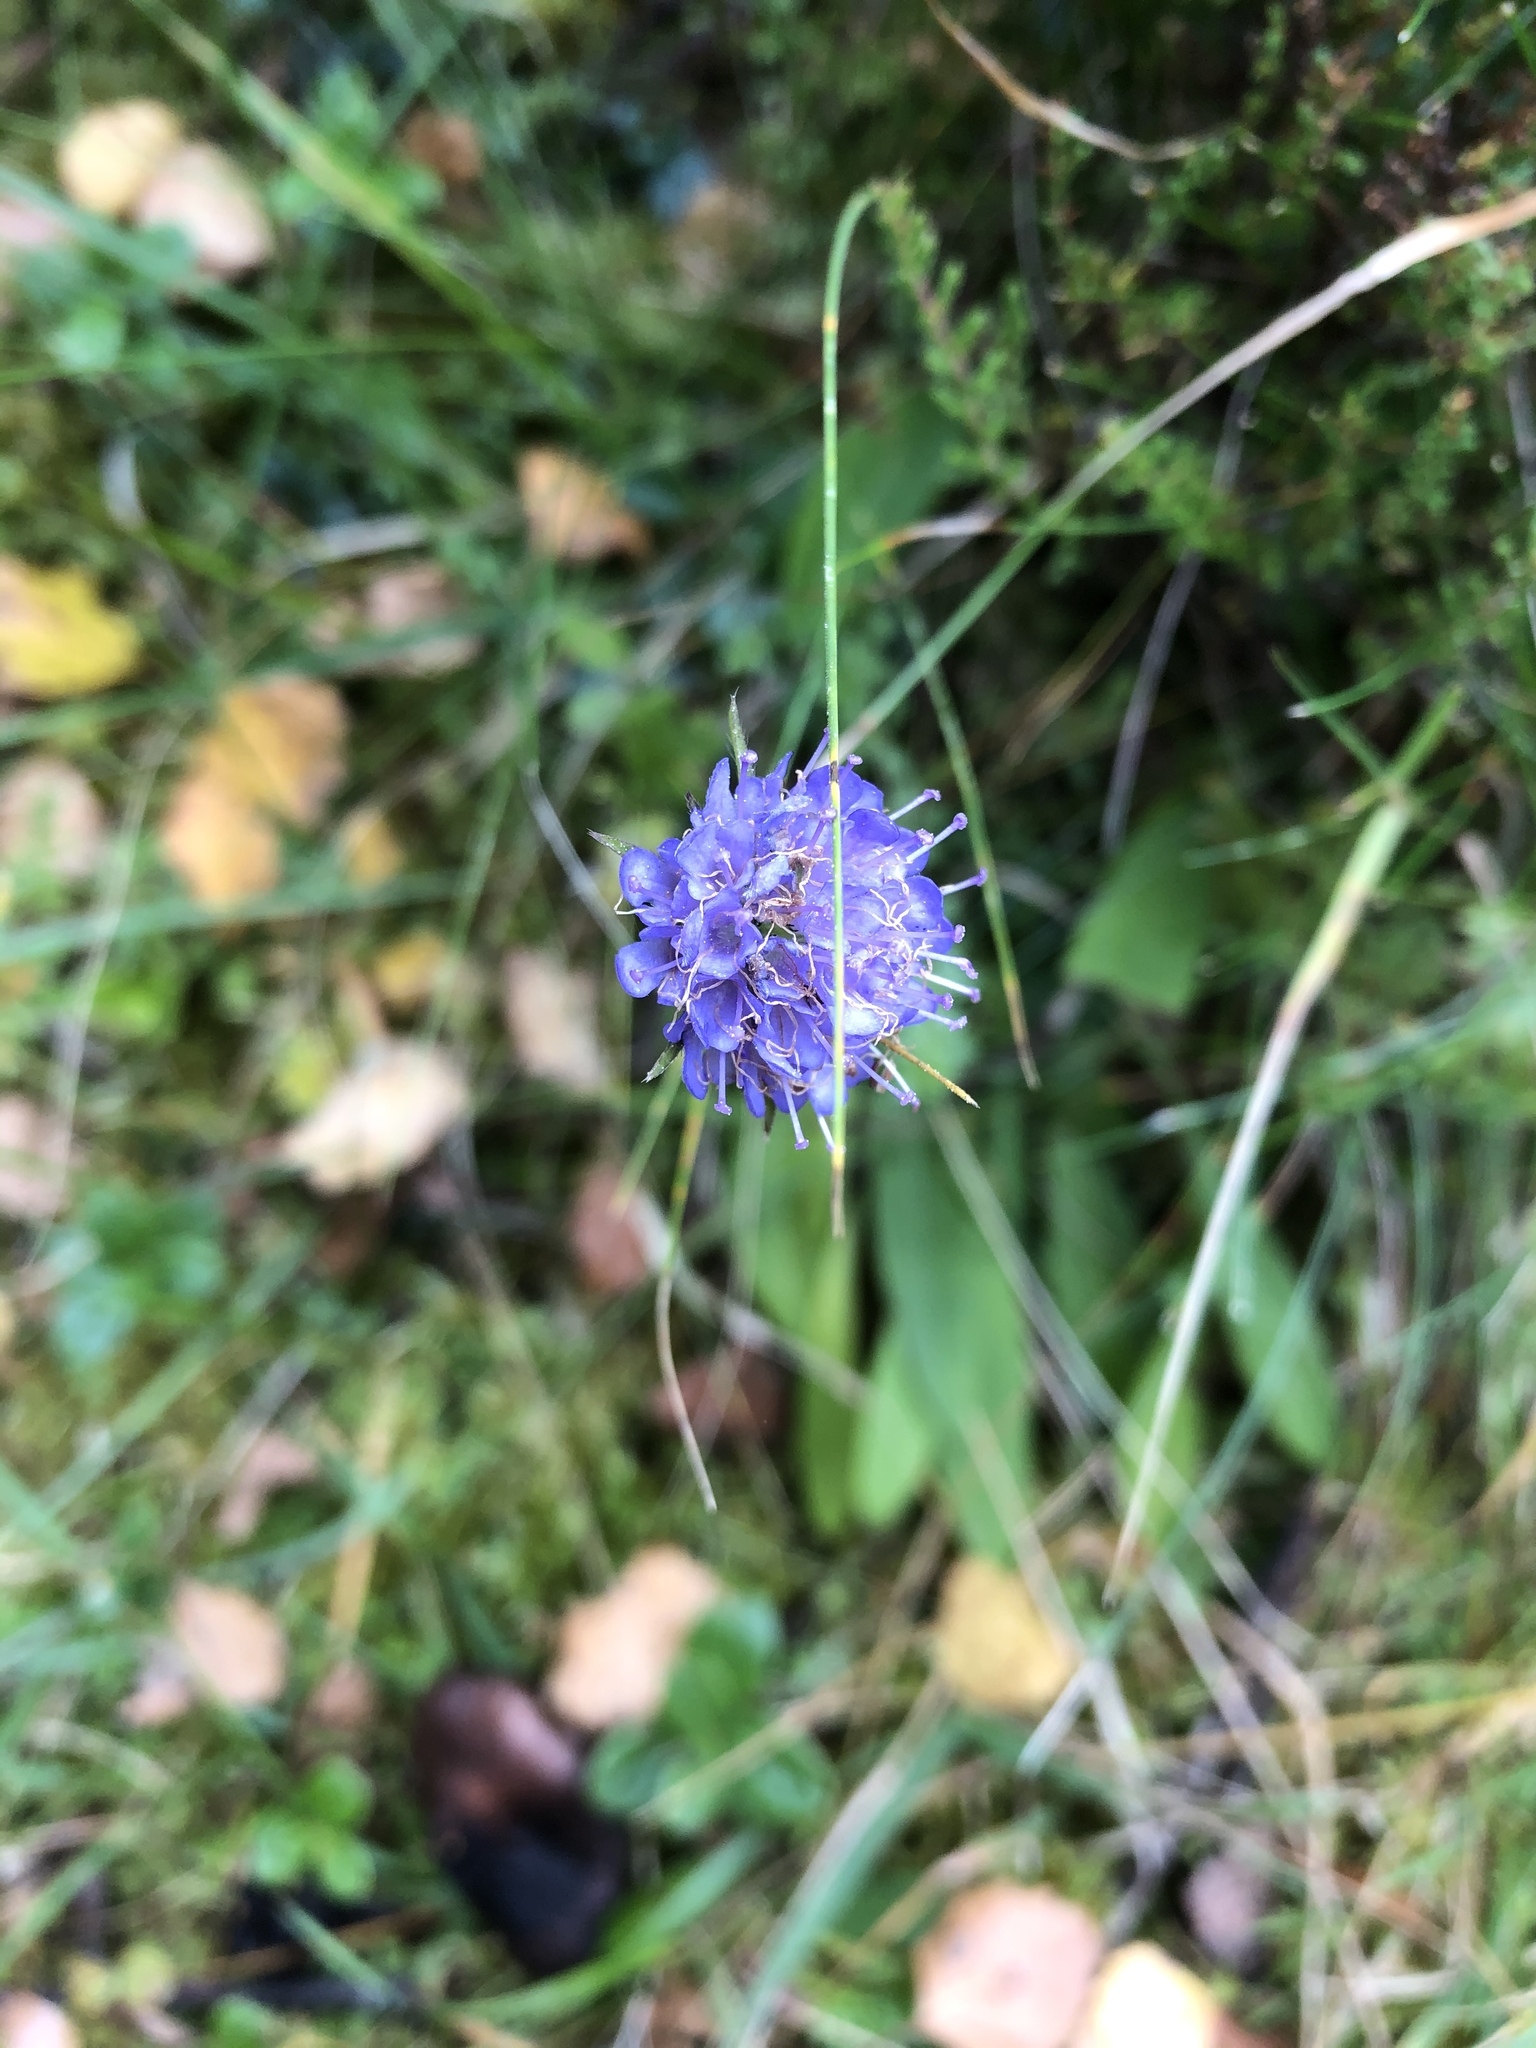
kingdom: Plantae
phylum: Tracheophyta
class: Magnoliopsida
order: Dipsacales
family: Caprifoliaceae
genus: Succisa
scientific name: Succisa pratensis
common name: Devil's-bit
